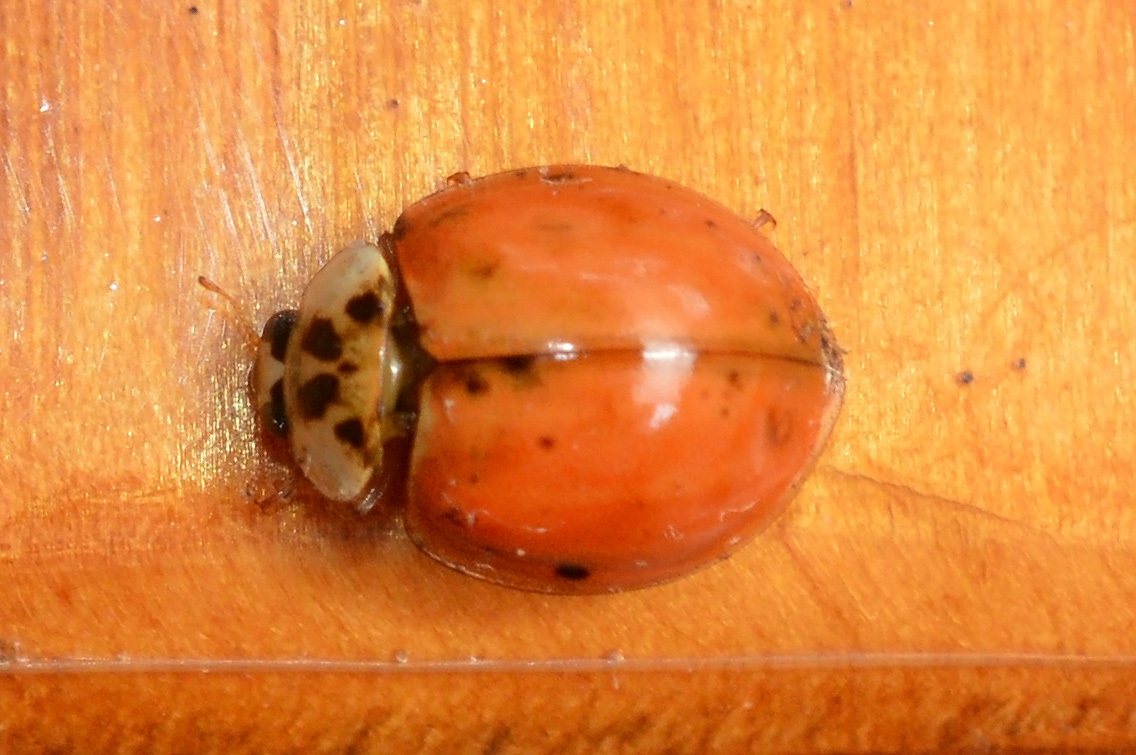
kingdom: Animalia
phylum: Arthropoda
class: Insecta
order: Coleoptera
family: Coccinellidae
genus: Harmonia
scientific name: Harmonia axyridis
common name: Harlequin ladybird
